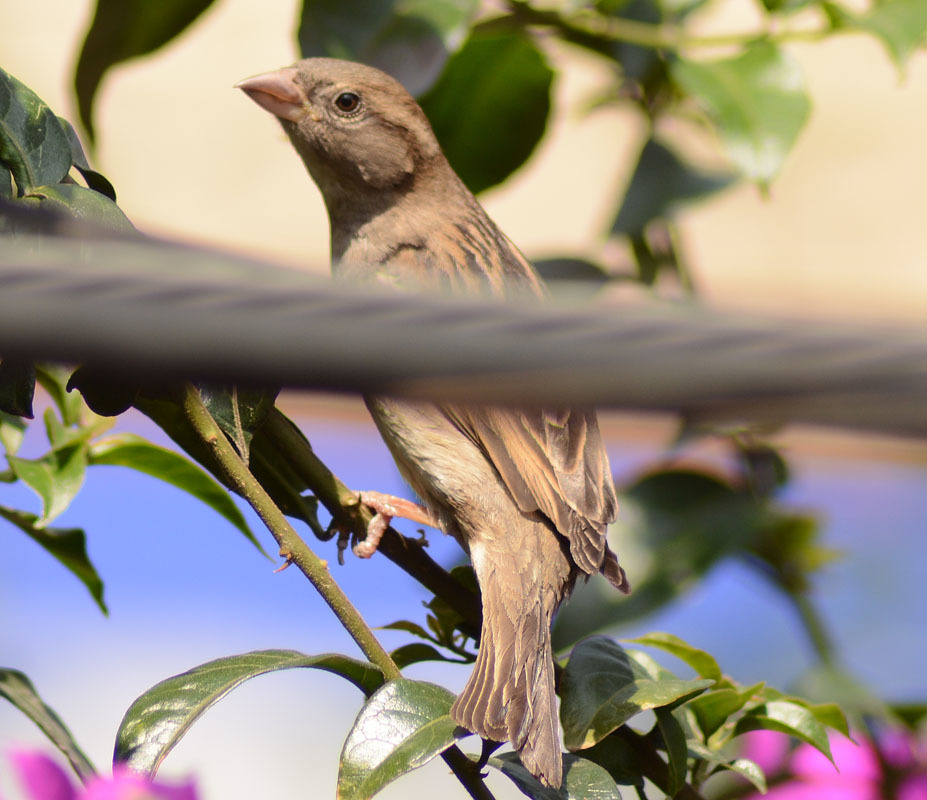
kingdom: Animalia
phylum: Chordata
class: Aves
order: Passeriformes
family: Passeridae
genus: Passer
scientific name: Passer domesticus
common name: House sparrow
